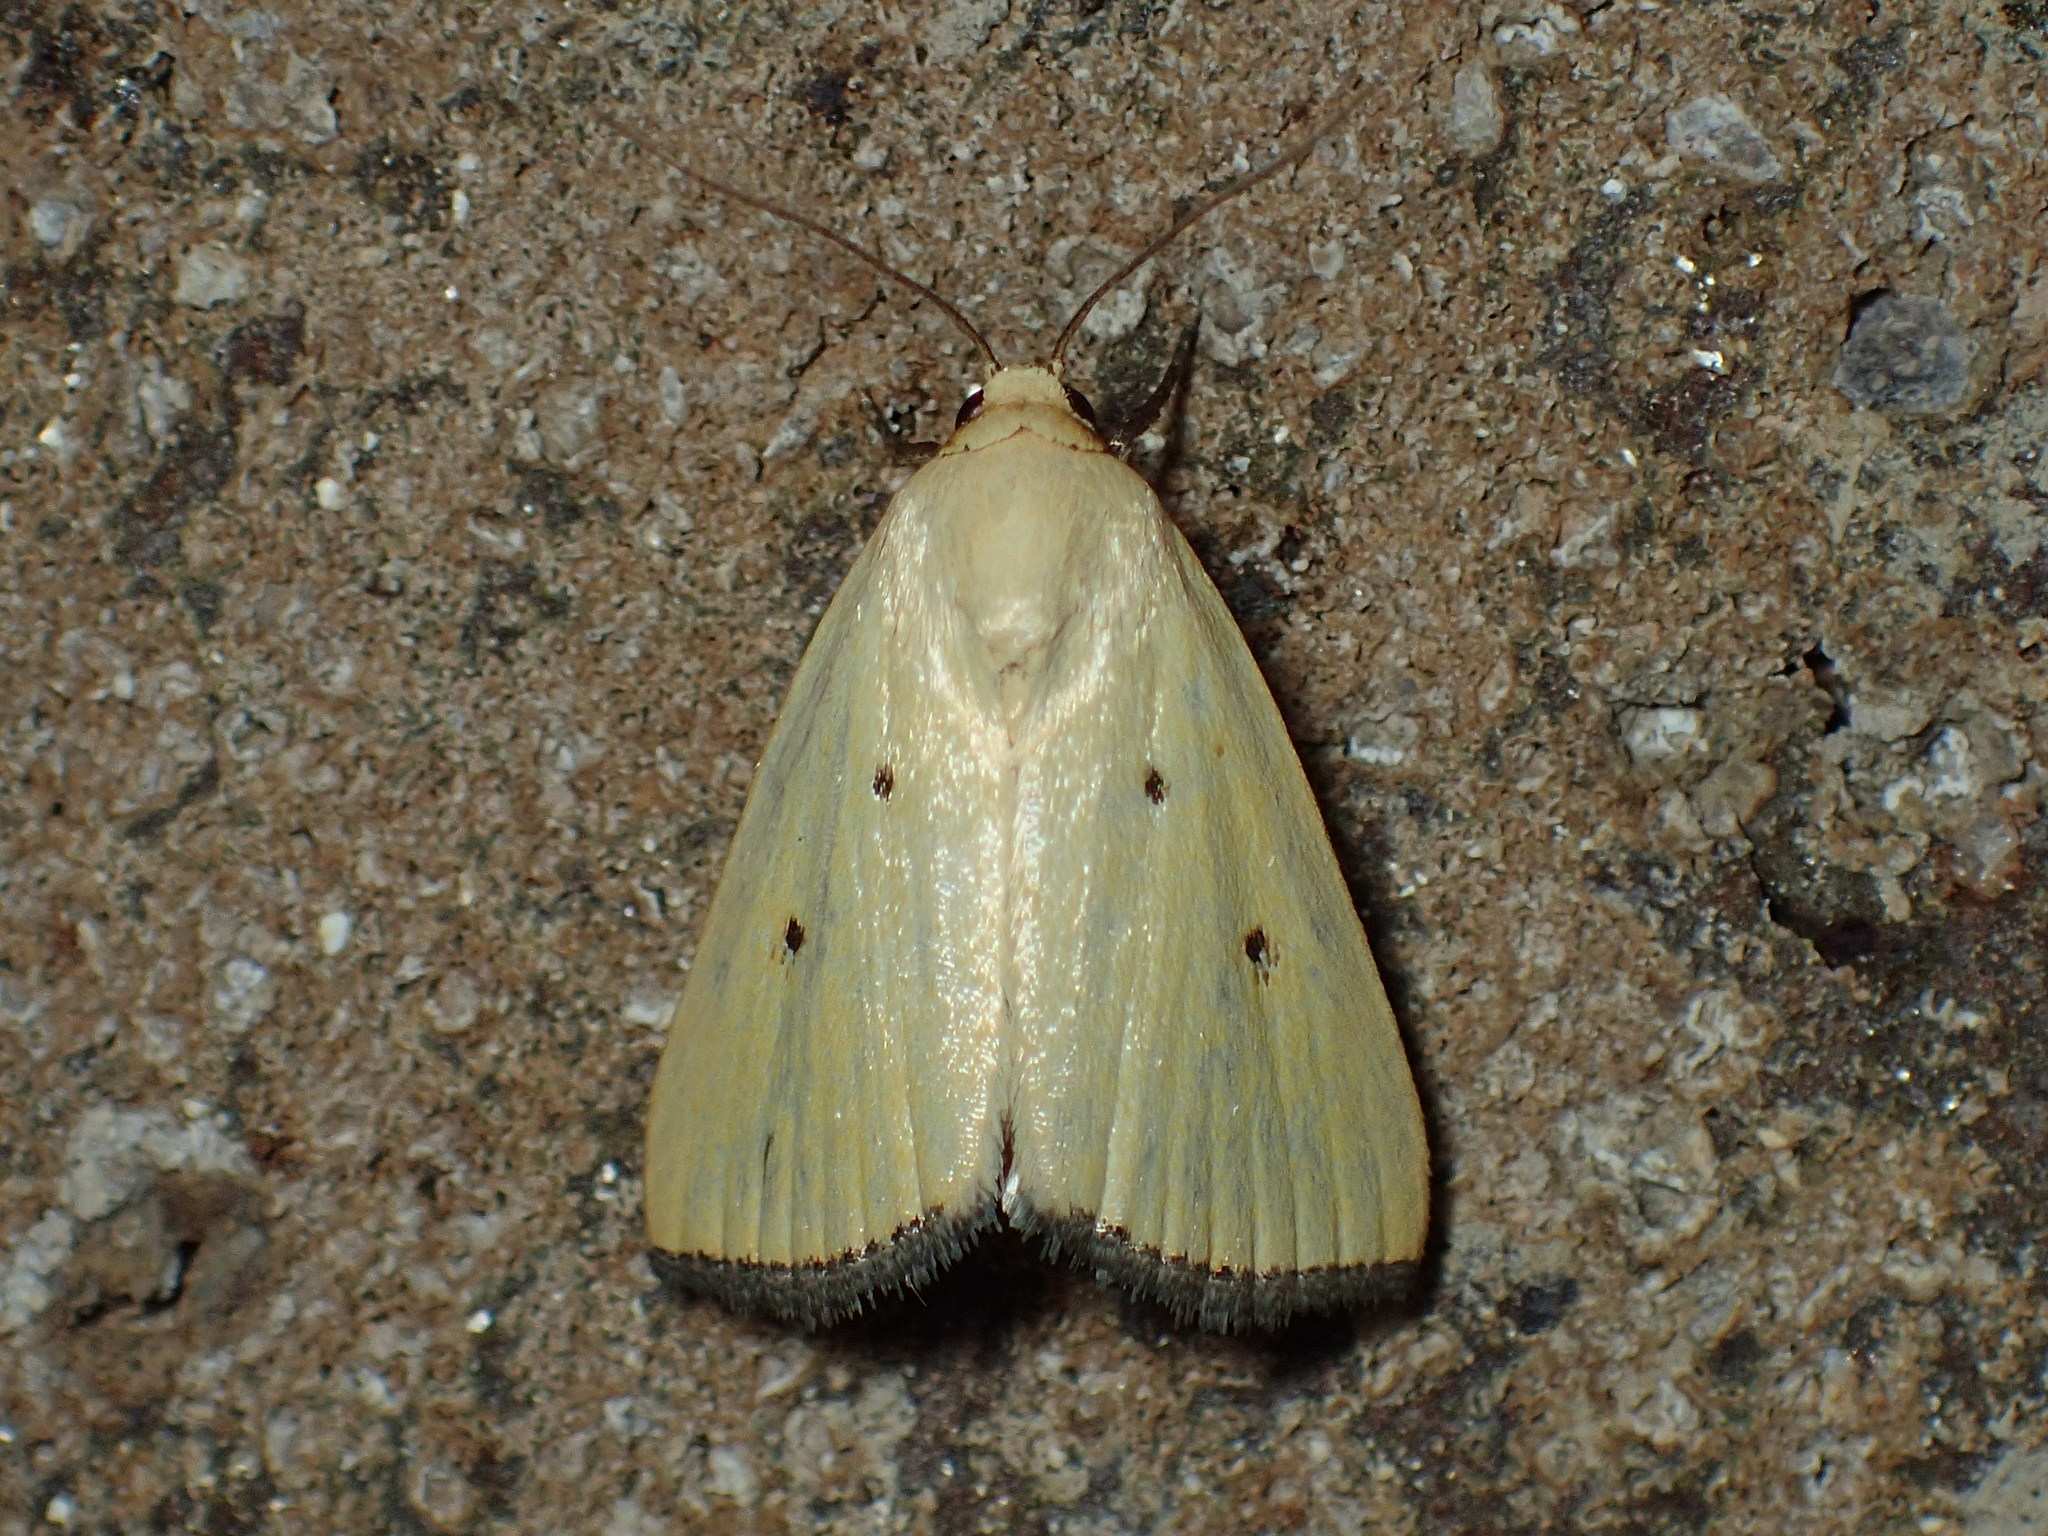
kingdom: Animalia
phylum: Arthropoda
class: Insecta
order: Lepidoptera
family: Noctuidae
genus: Marimatha
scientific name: Marimatha nigrofimbria
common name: Black-bordered lemon moth
